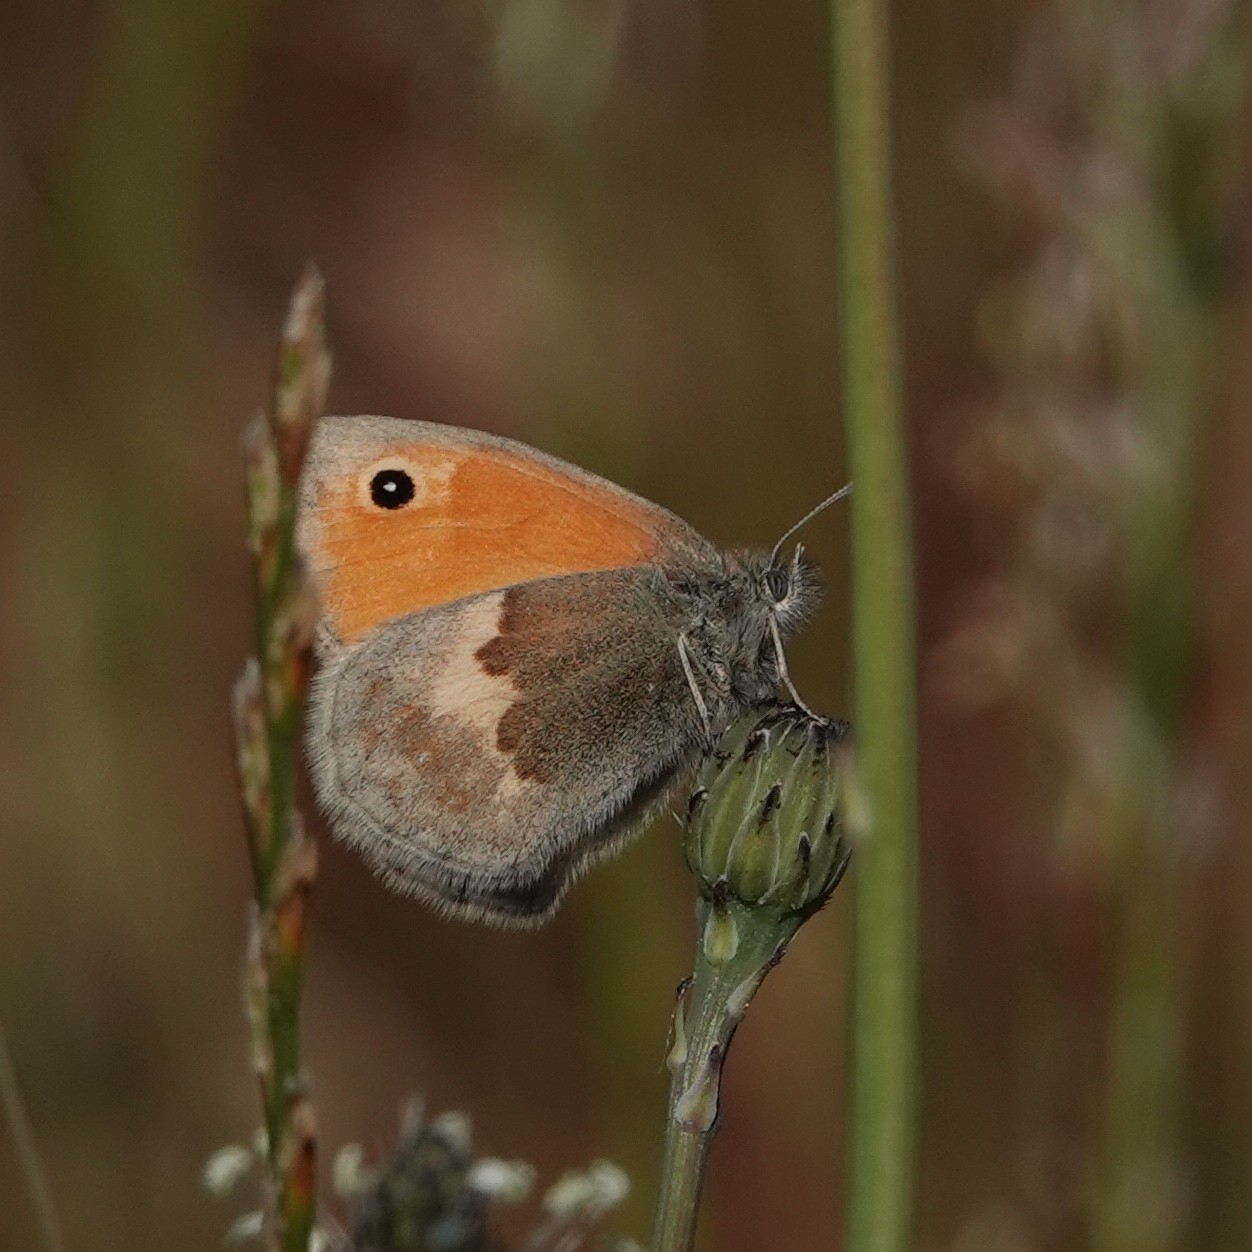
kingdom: Animalia
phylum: Arthropoda
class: Insecta
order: Lepidoptera
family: Nymphalidae
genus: Coenonympha
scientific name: Coenonympha pamphilus
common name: Small heath
